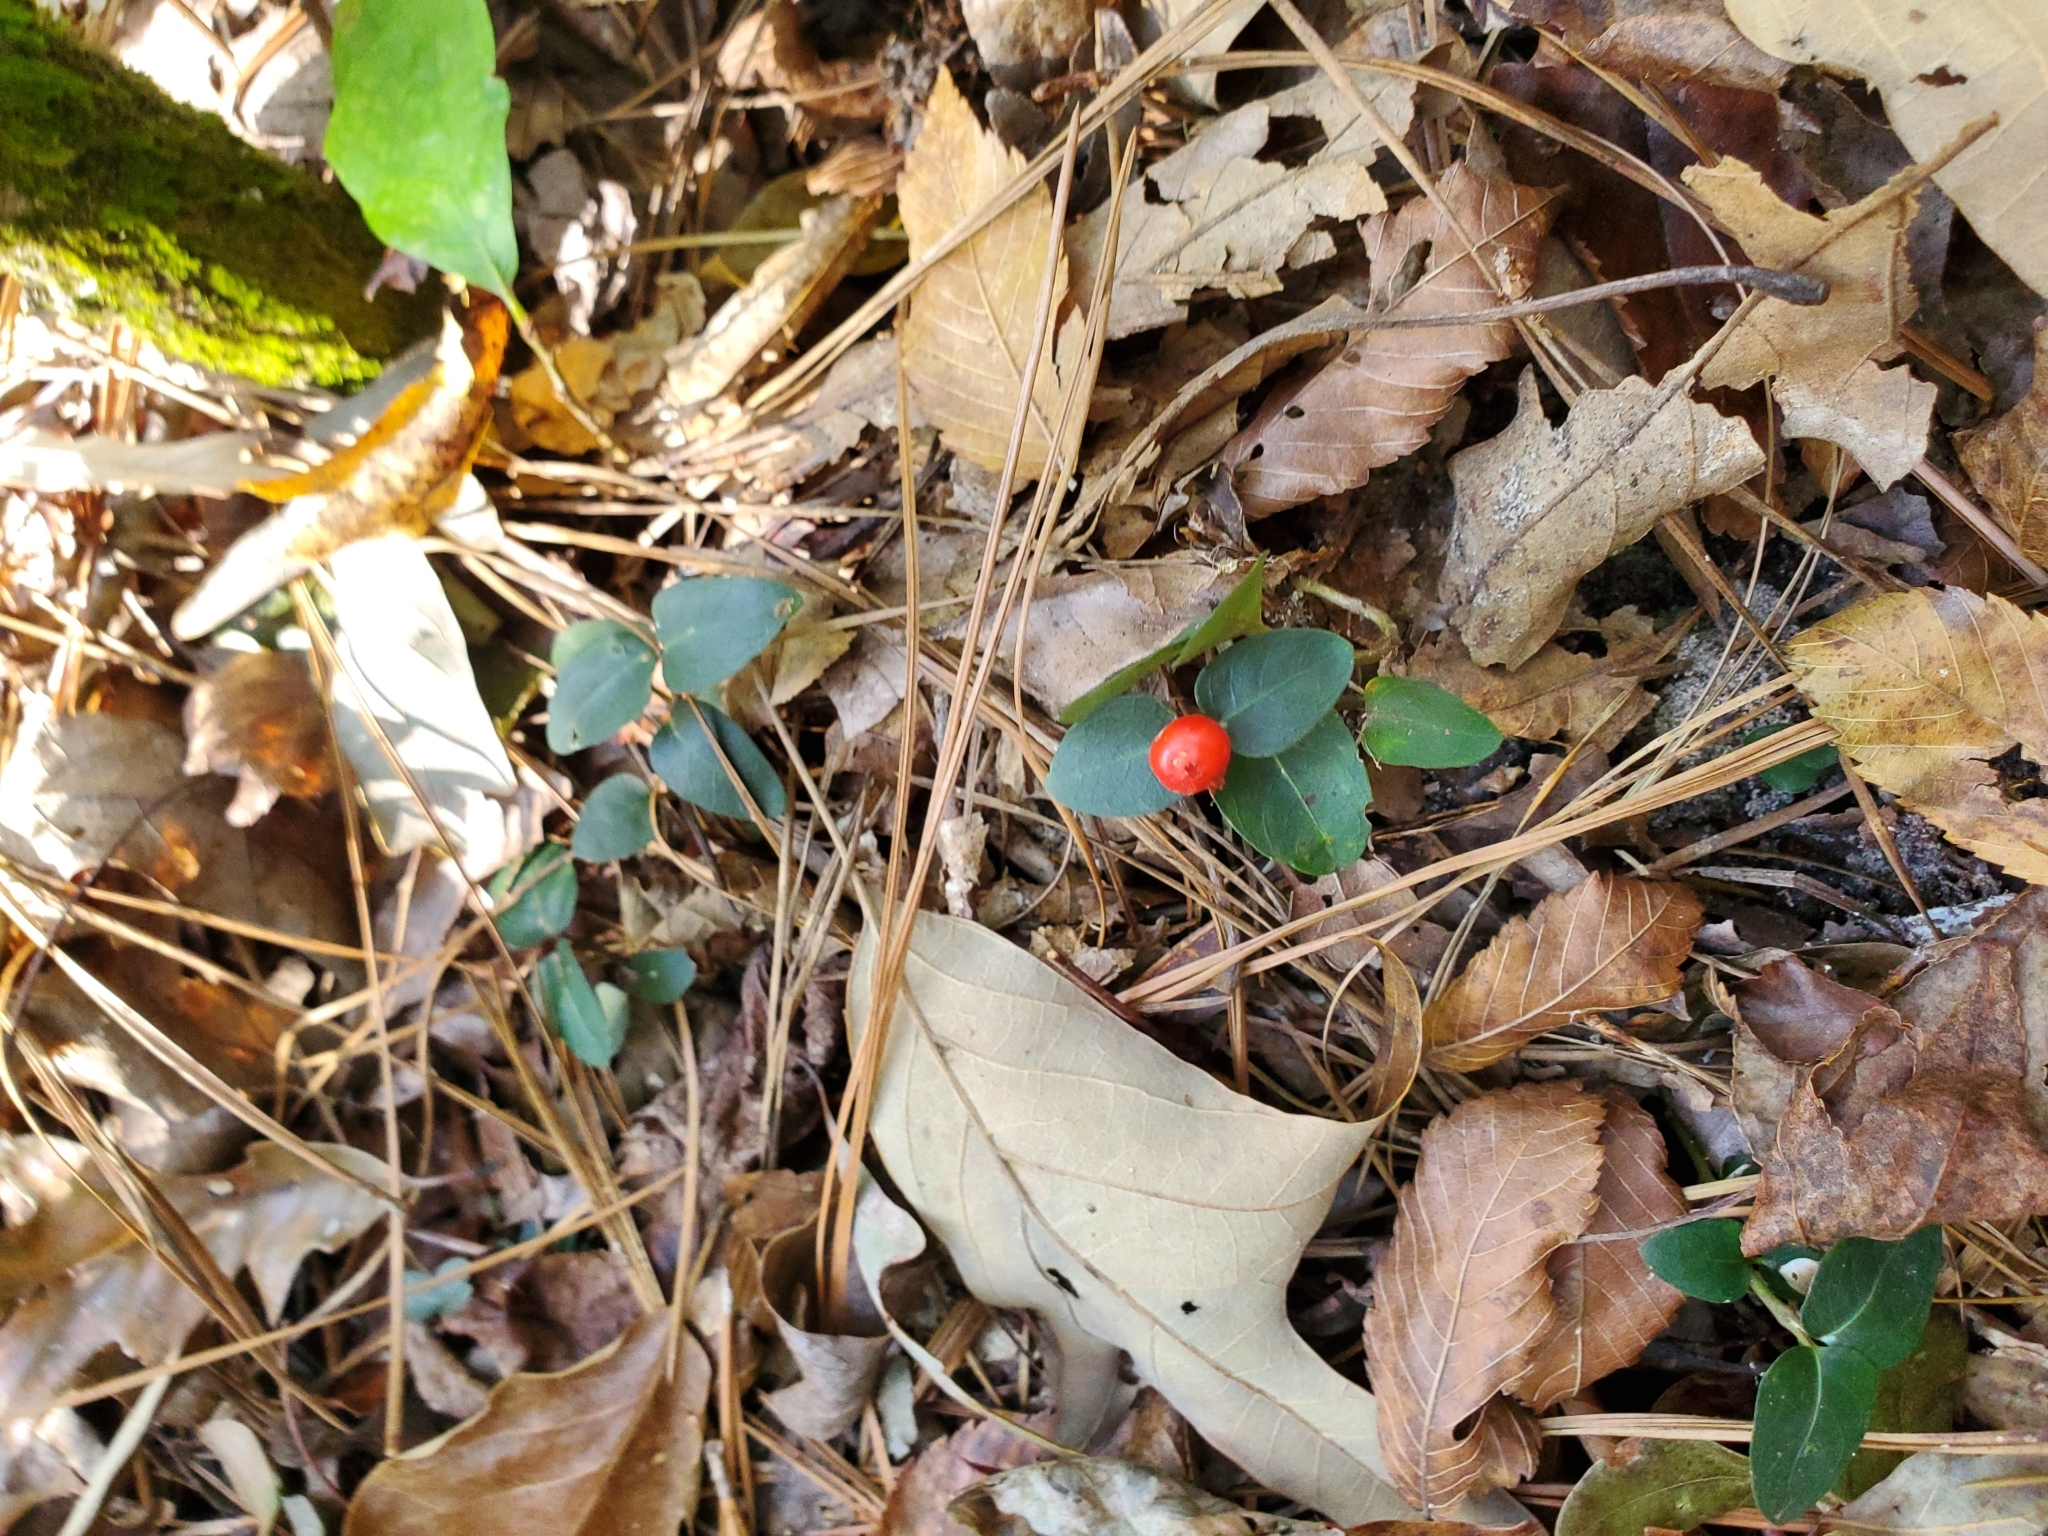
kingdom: Plantae
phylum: Tracheophyta
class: Magnoliopsida
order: Gentianales
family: Rubiaceae
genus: Mitchella
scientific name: Mitchella repens
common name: Partridge-berry
